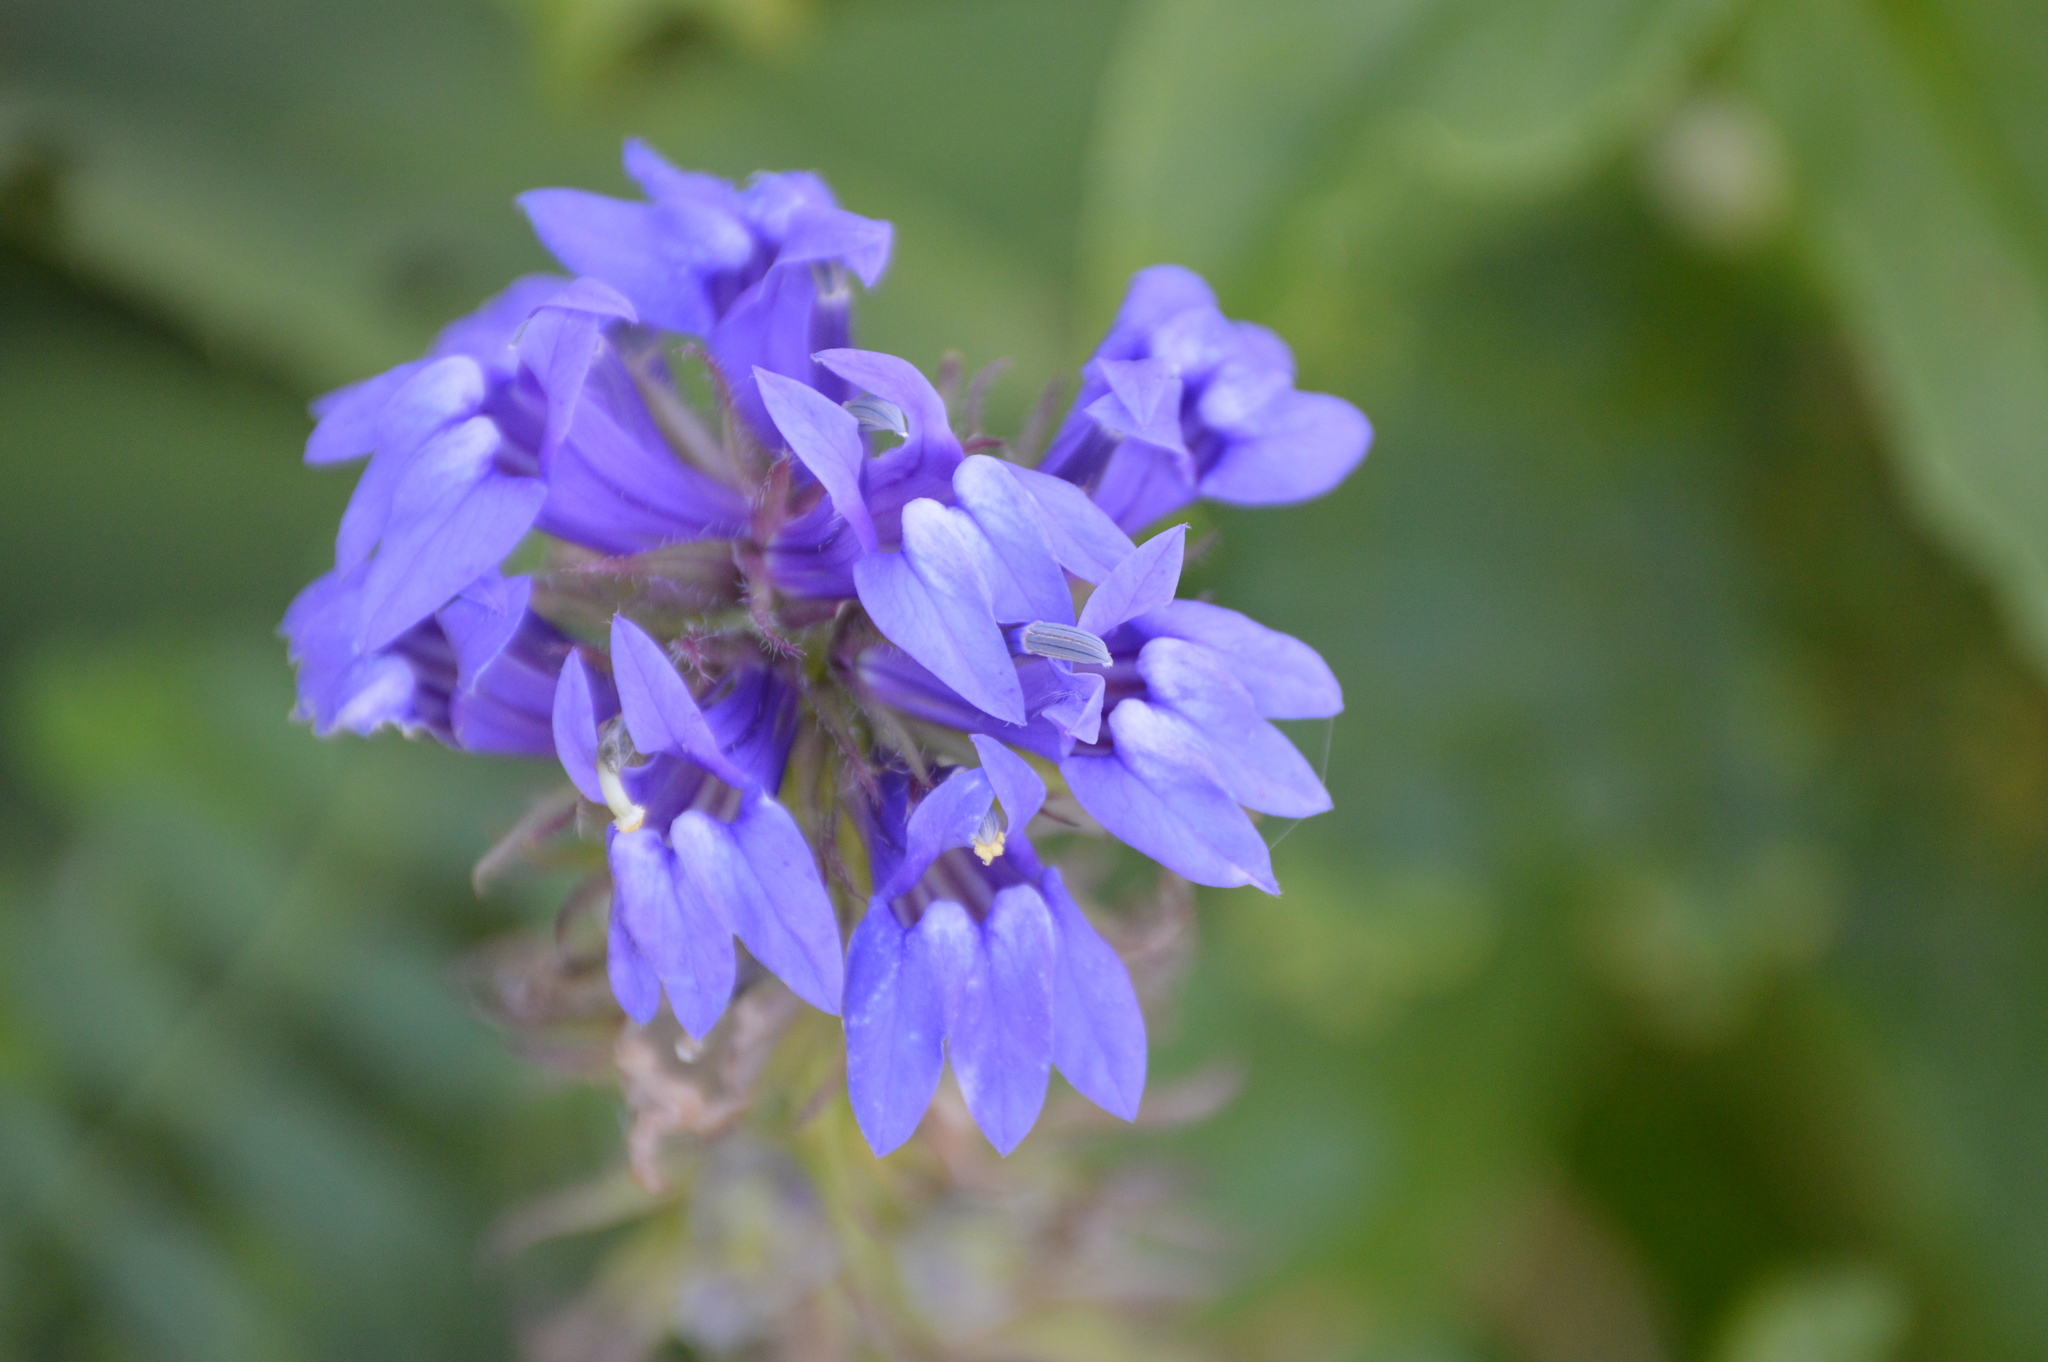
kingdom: Plantae
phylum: Tracheophyta
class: Magnoliopsida
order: Asterales
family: Campanulaceae
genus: Lobelia
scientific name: Lobelia siphilitica
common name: Great lobelia
